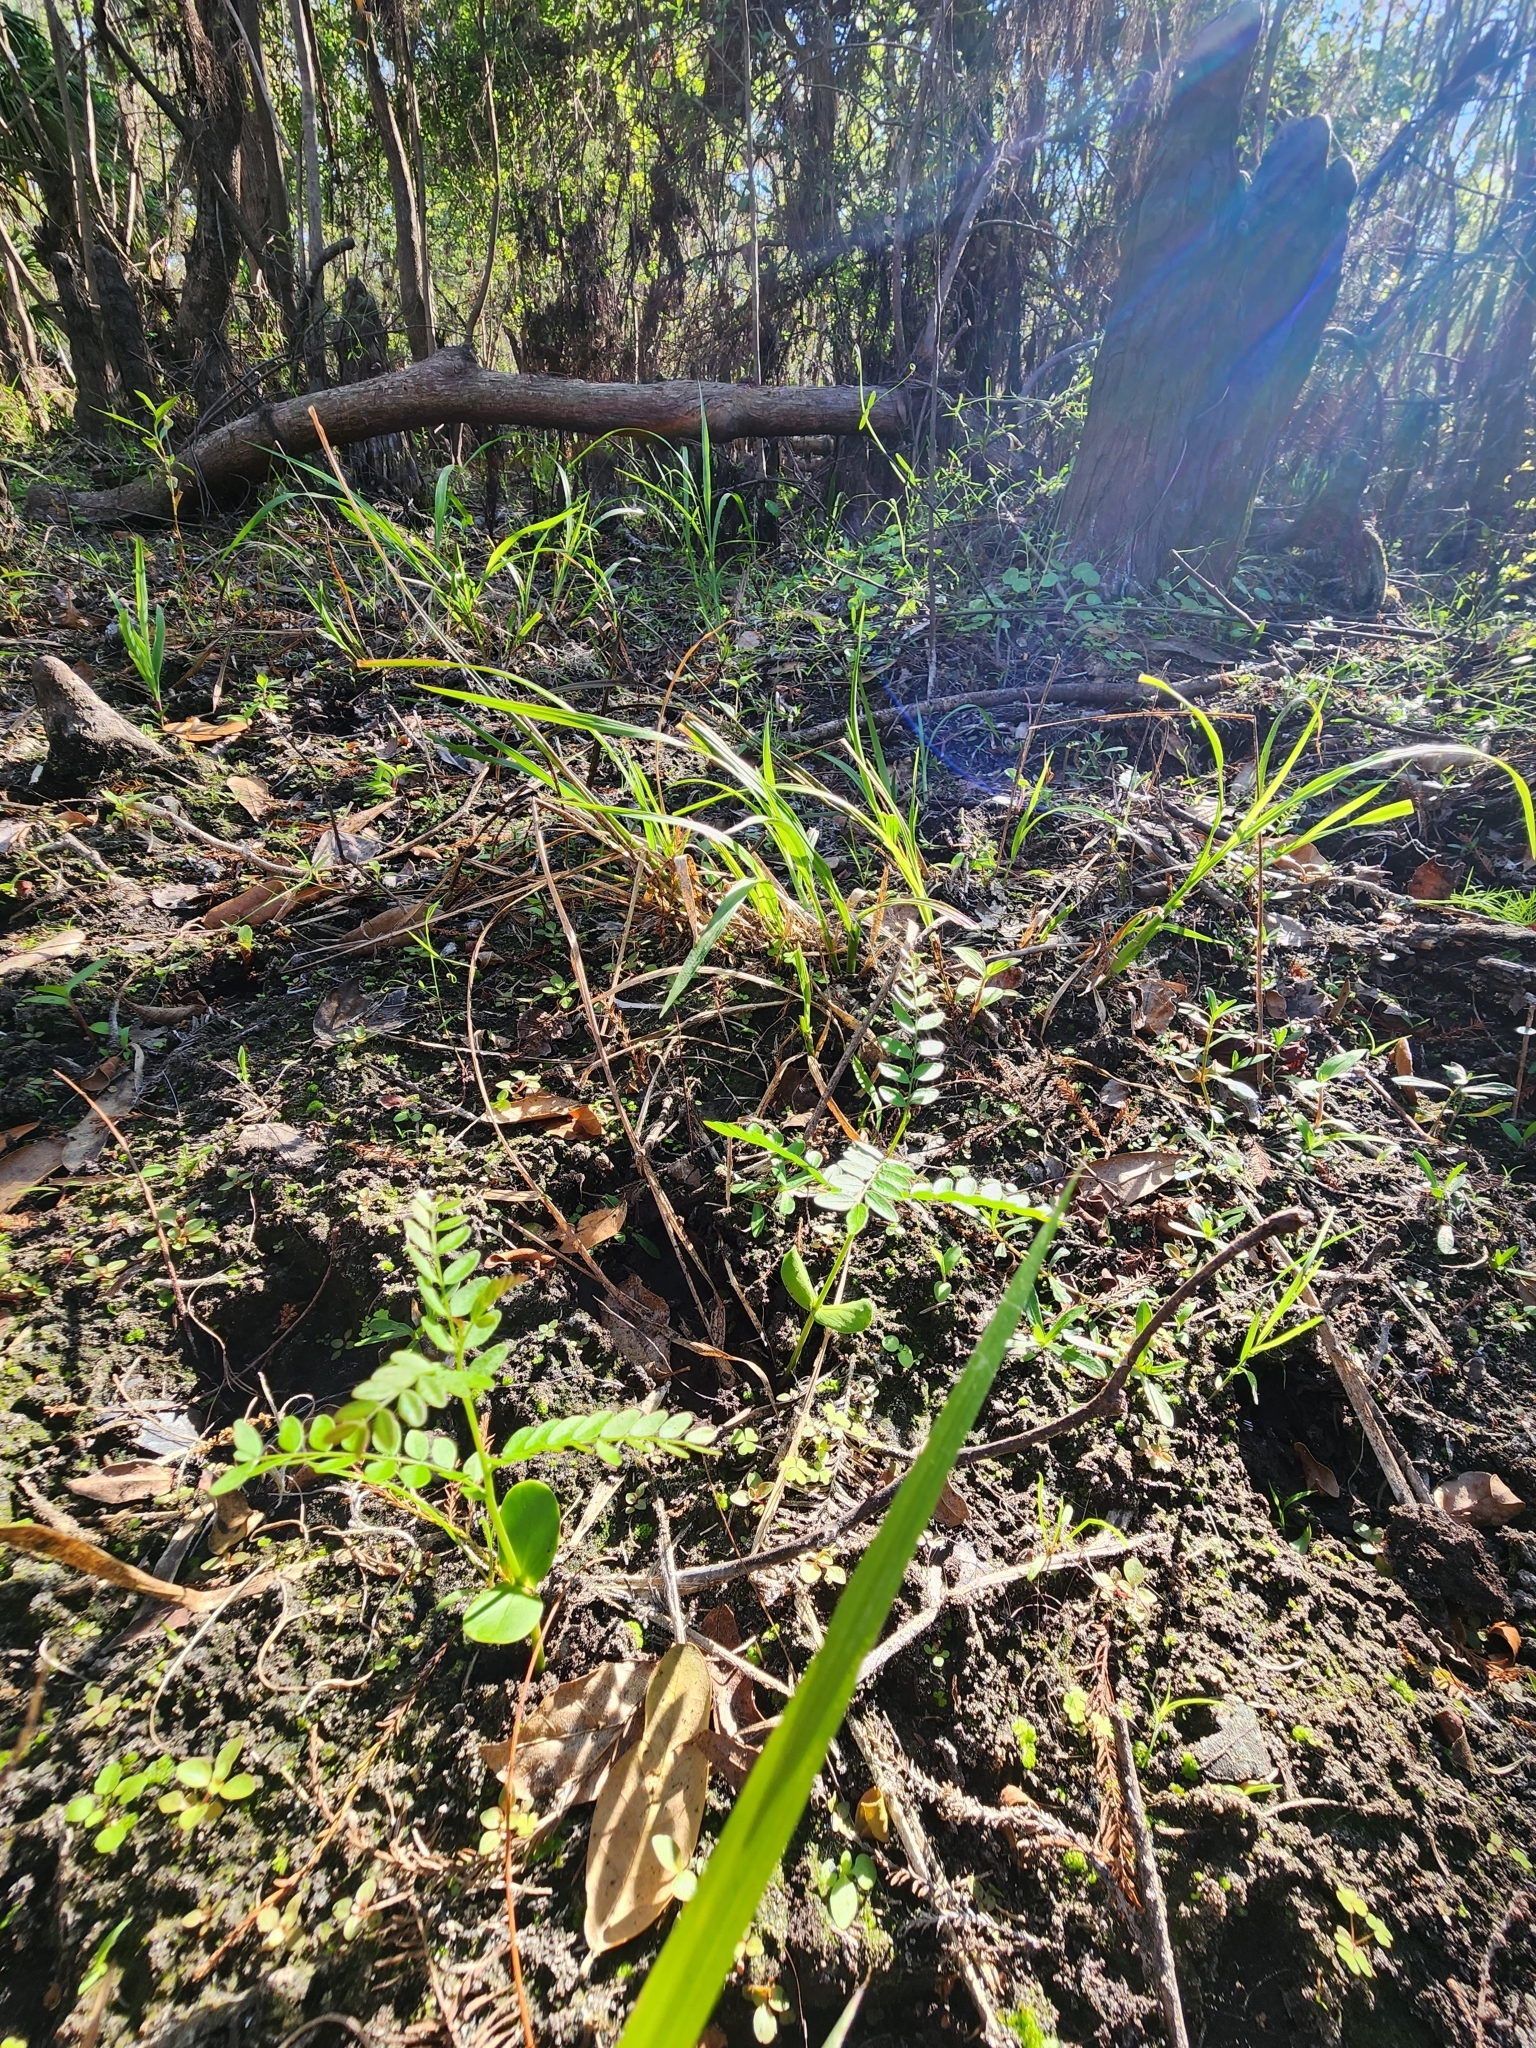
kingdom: Plantae
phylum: Tracheophyta
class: Magnoliopsida
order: Fabales
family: Fabaceae
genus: Gleditsia
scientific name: Gleditsia aquatica
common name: Swamp-locust
